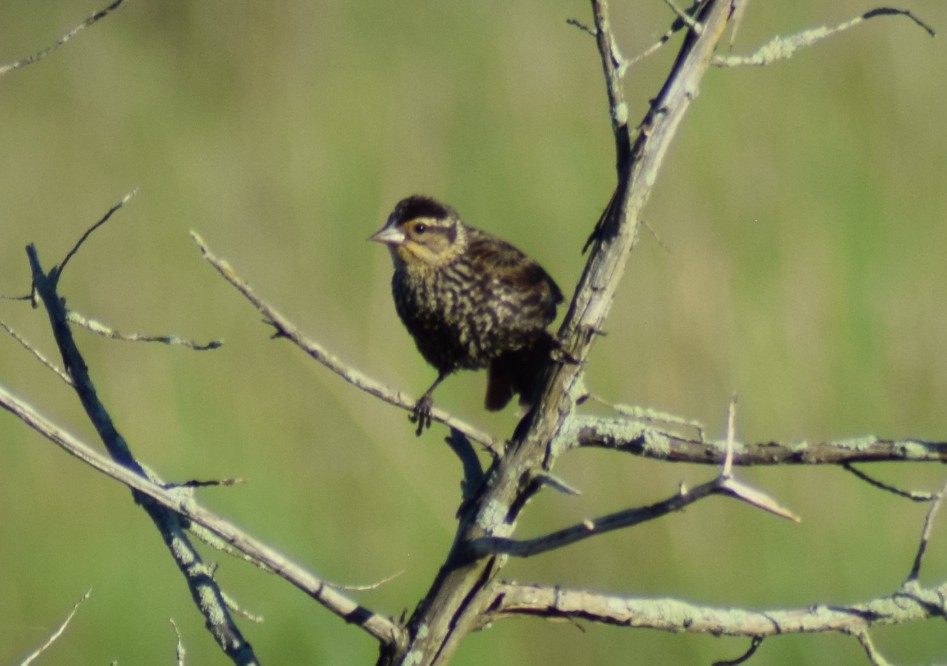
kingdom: Animalia
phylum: Chordata
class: Aves
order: Passeriformes
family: Icteridae
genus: Agelaius
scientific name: Agelaius phoeniceus
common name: Red-winged blackbird
